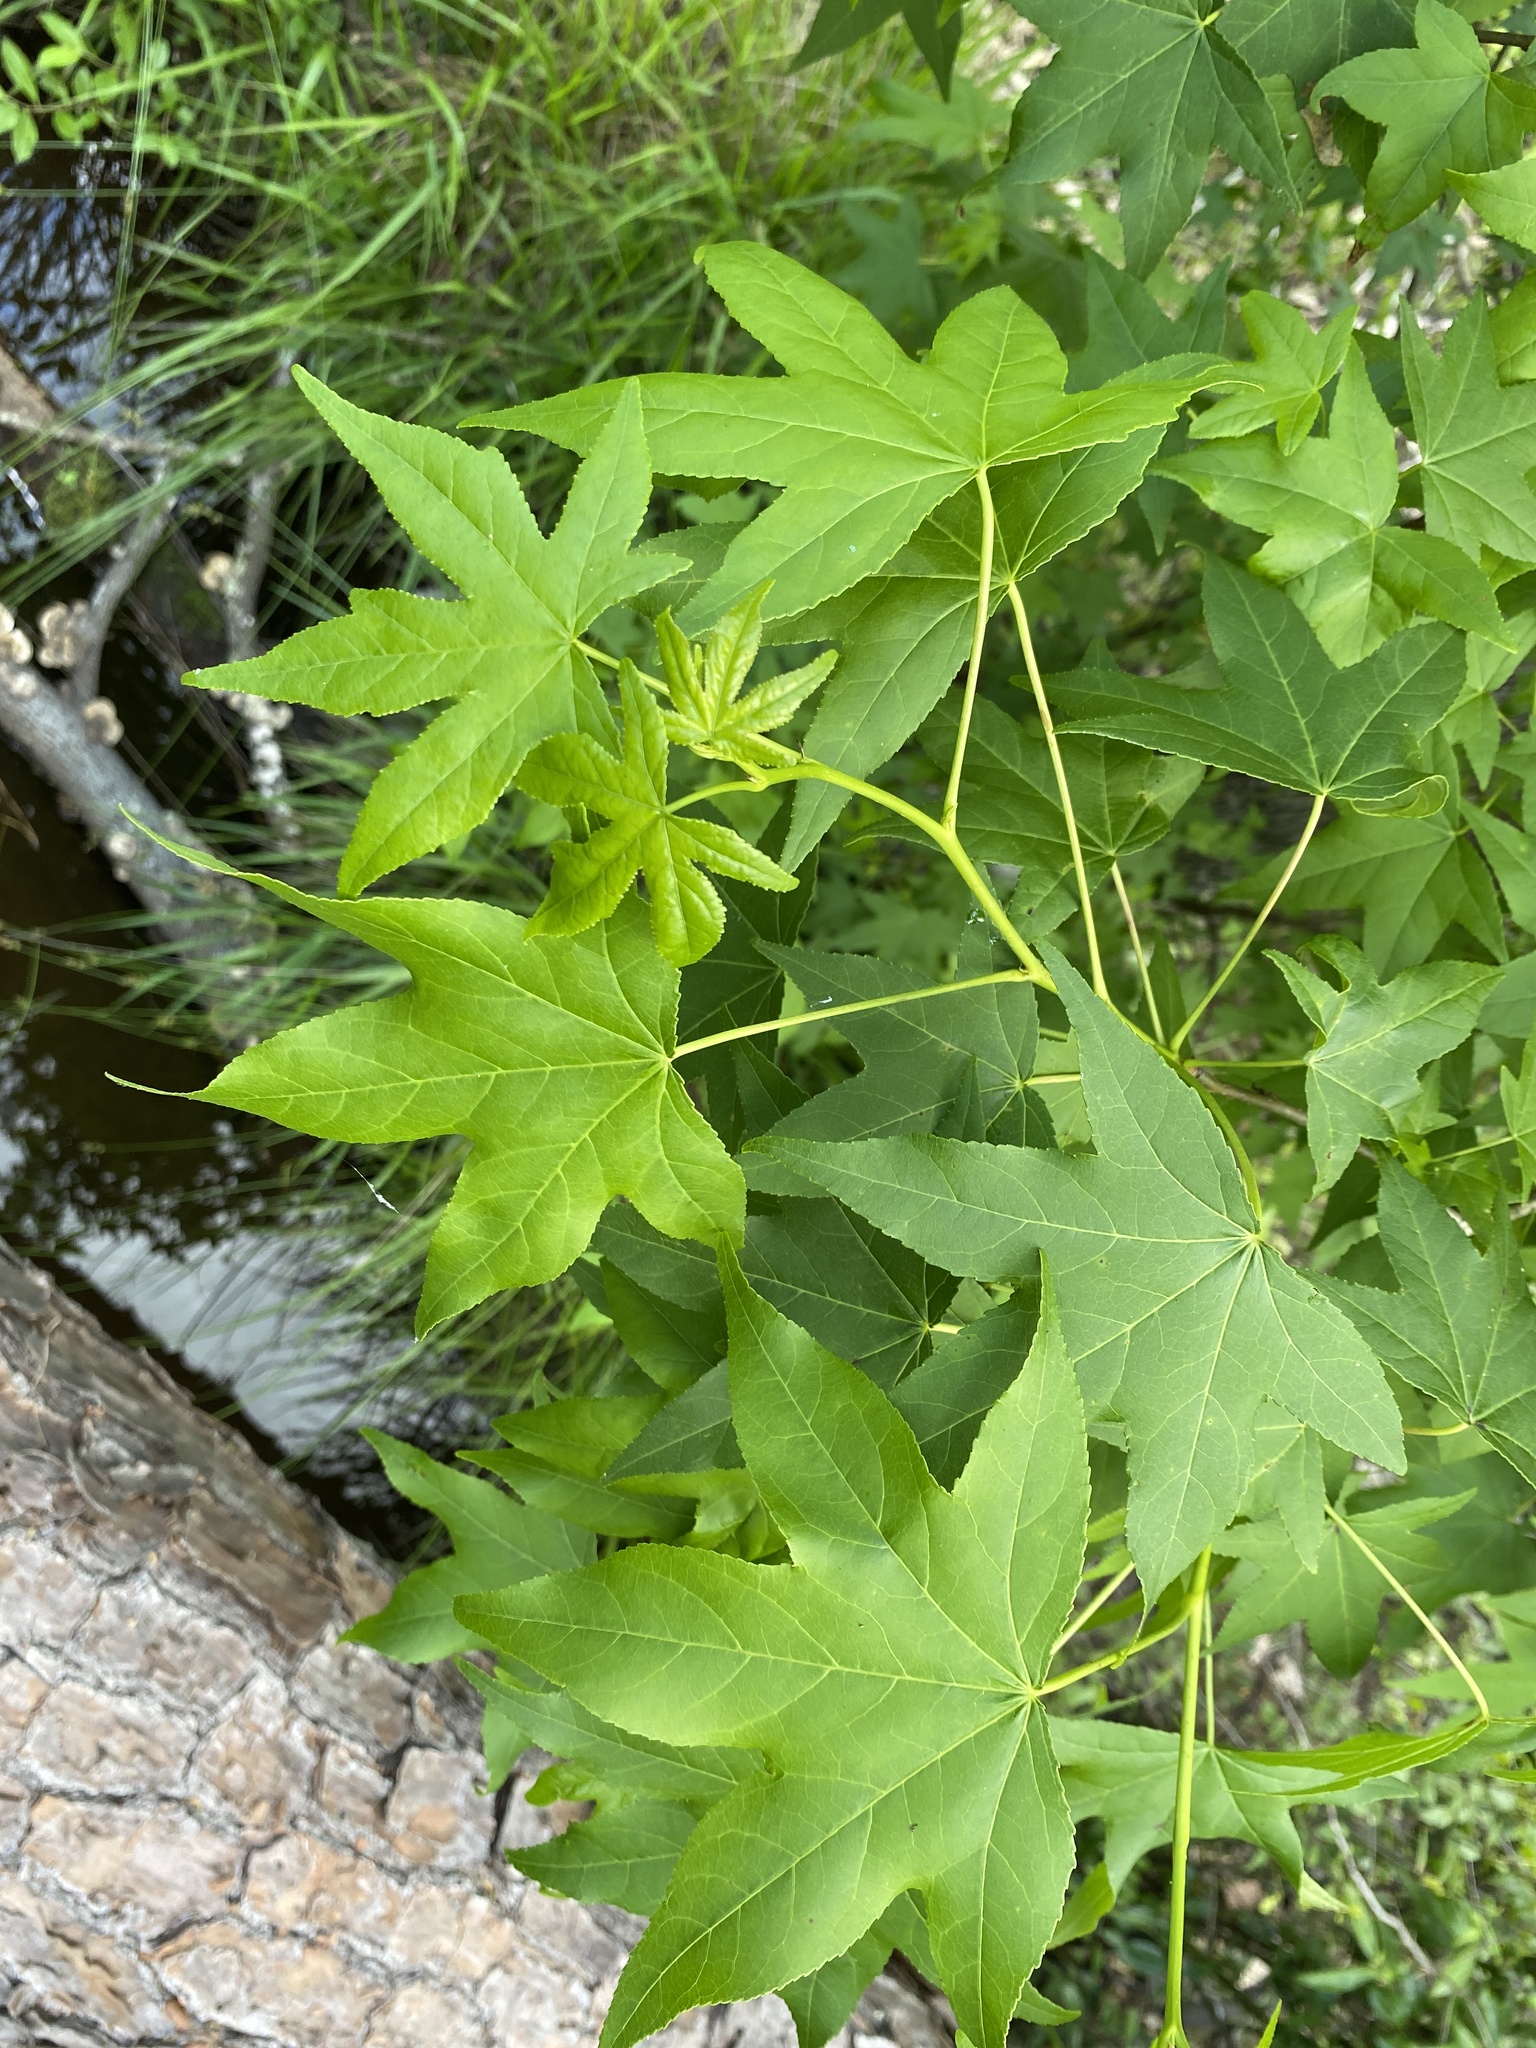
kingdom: Plantae
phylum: Tracheophyta
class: Magnoliopsida
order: Saxifragales
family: Altingiaceae
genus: Liquidambar
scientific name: Liquidambar styraciflua
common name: Sweet gum
